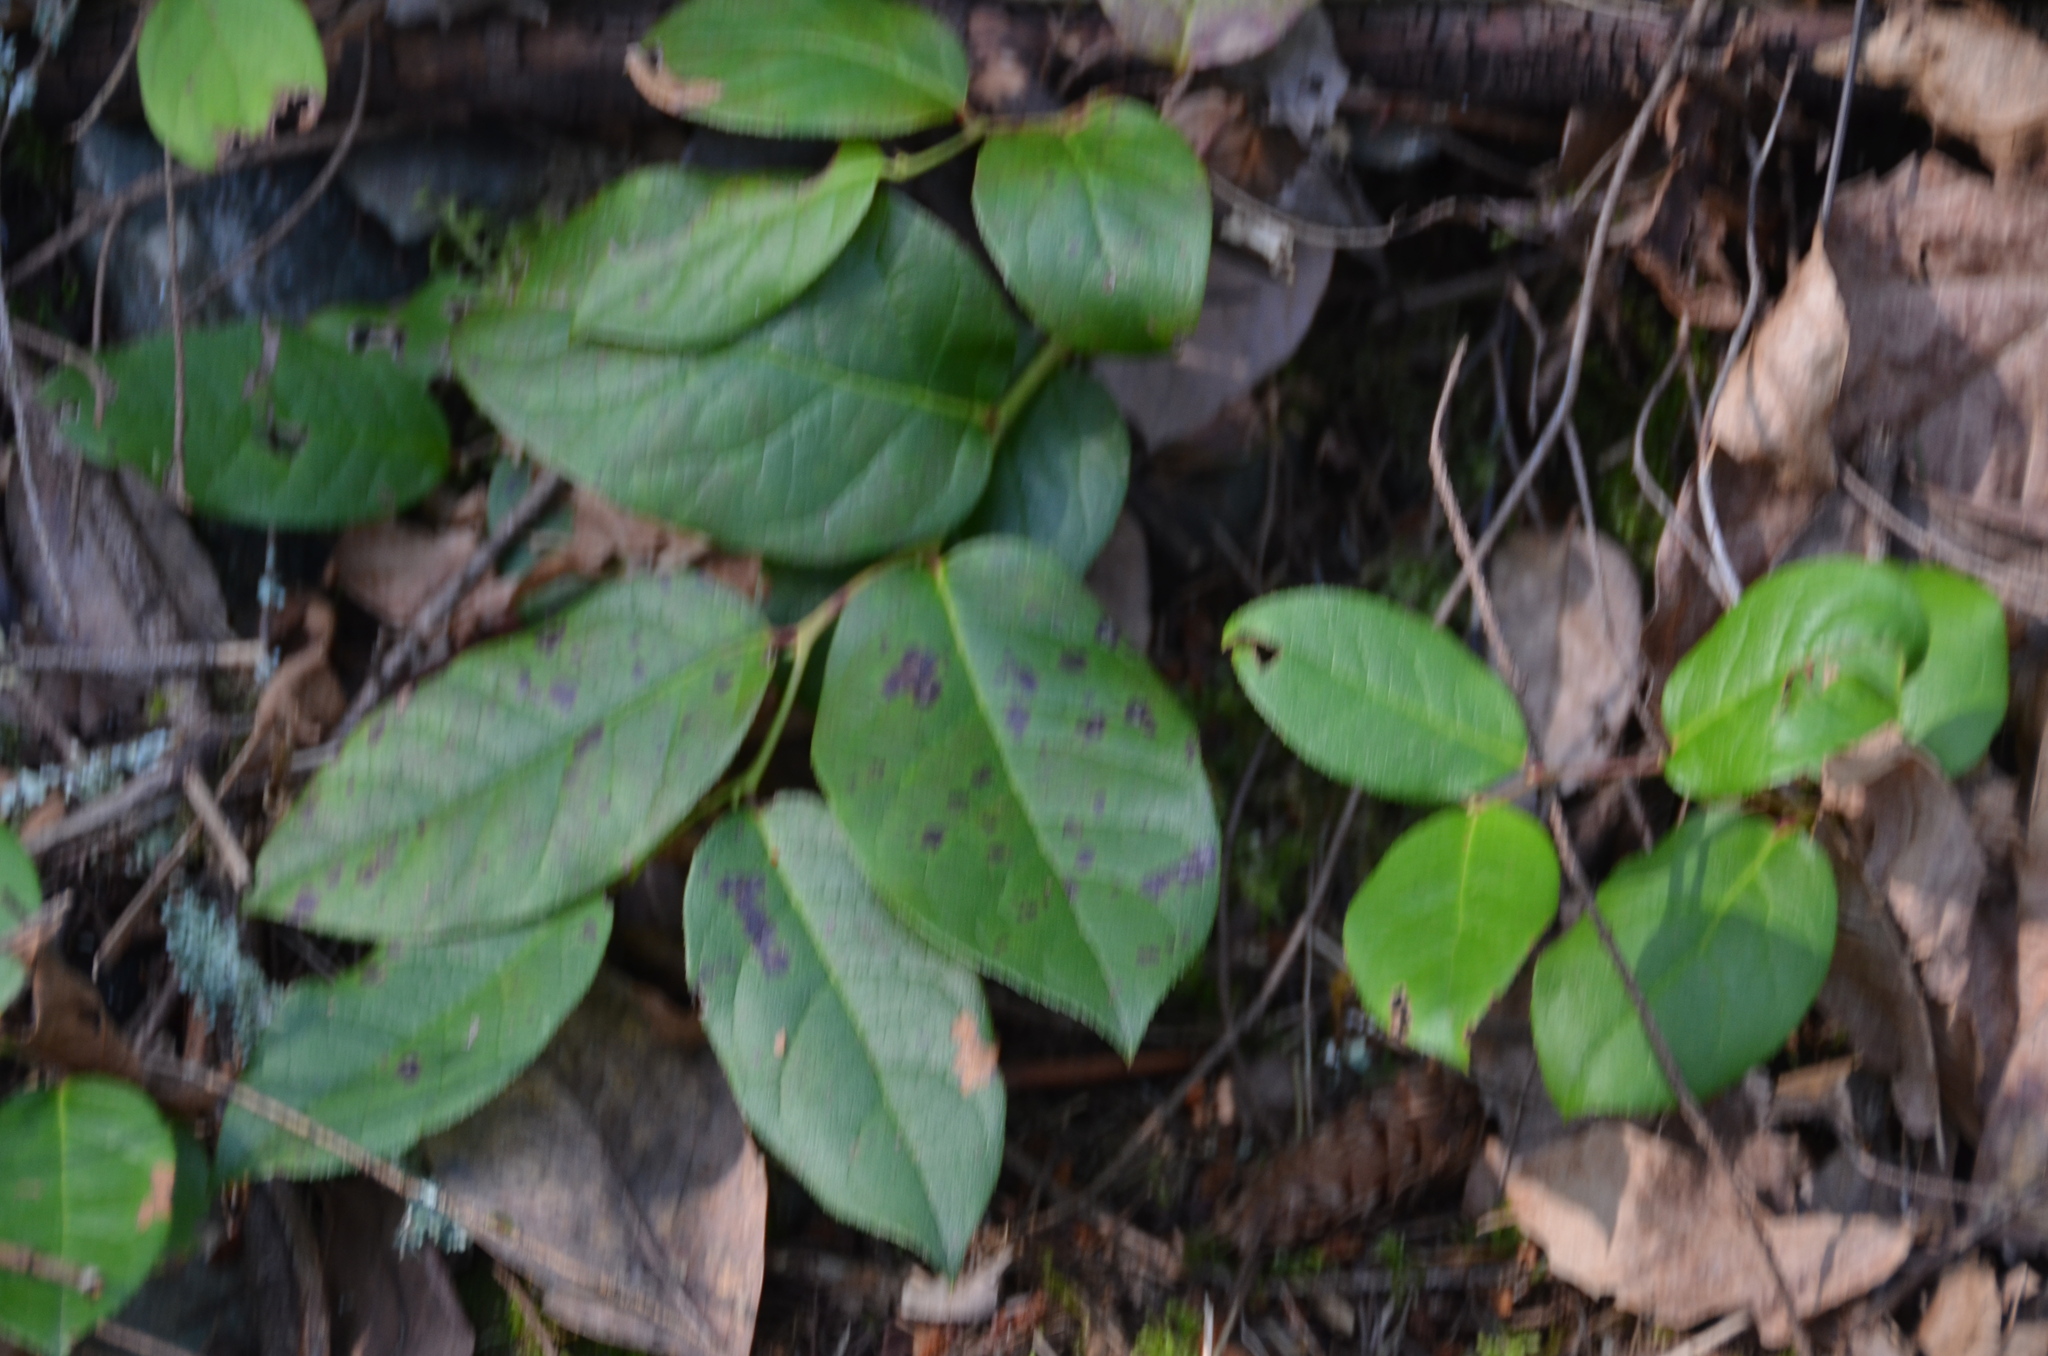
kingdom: Plantae
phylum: Tracheophyta
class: Magnoliopsida
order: Ericales
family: Ericaceae
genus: Gaultheria
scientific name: Gaultheria shallon
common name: Shallon
